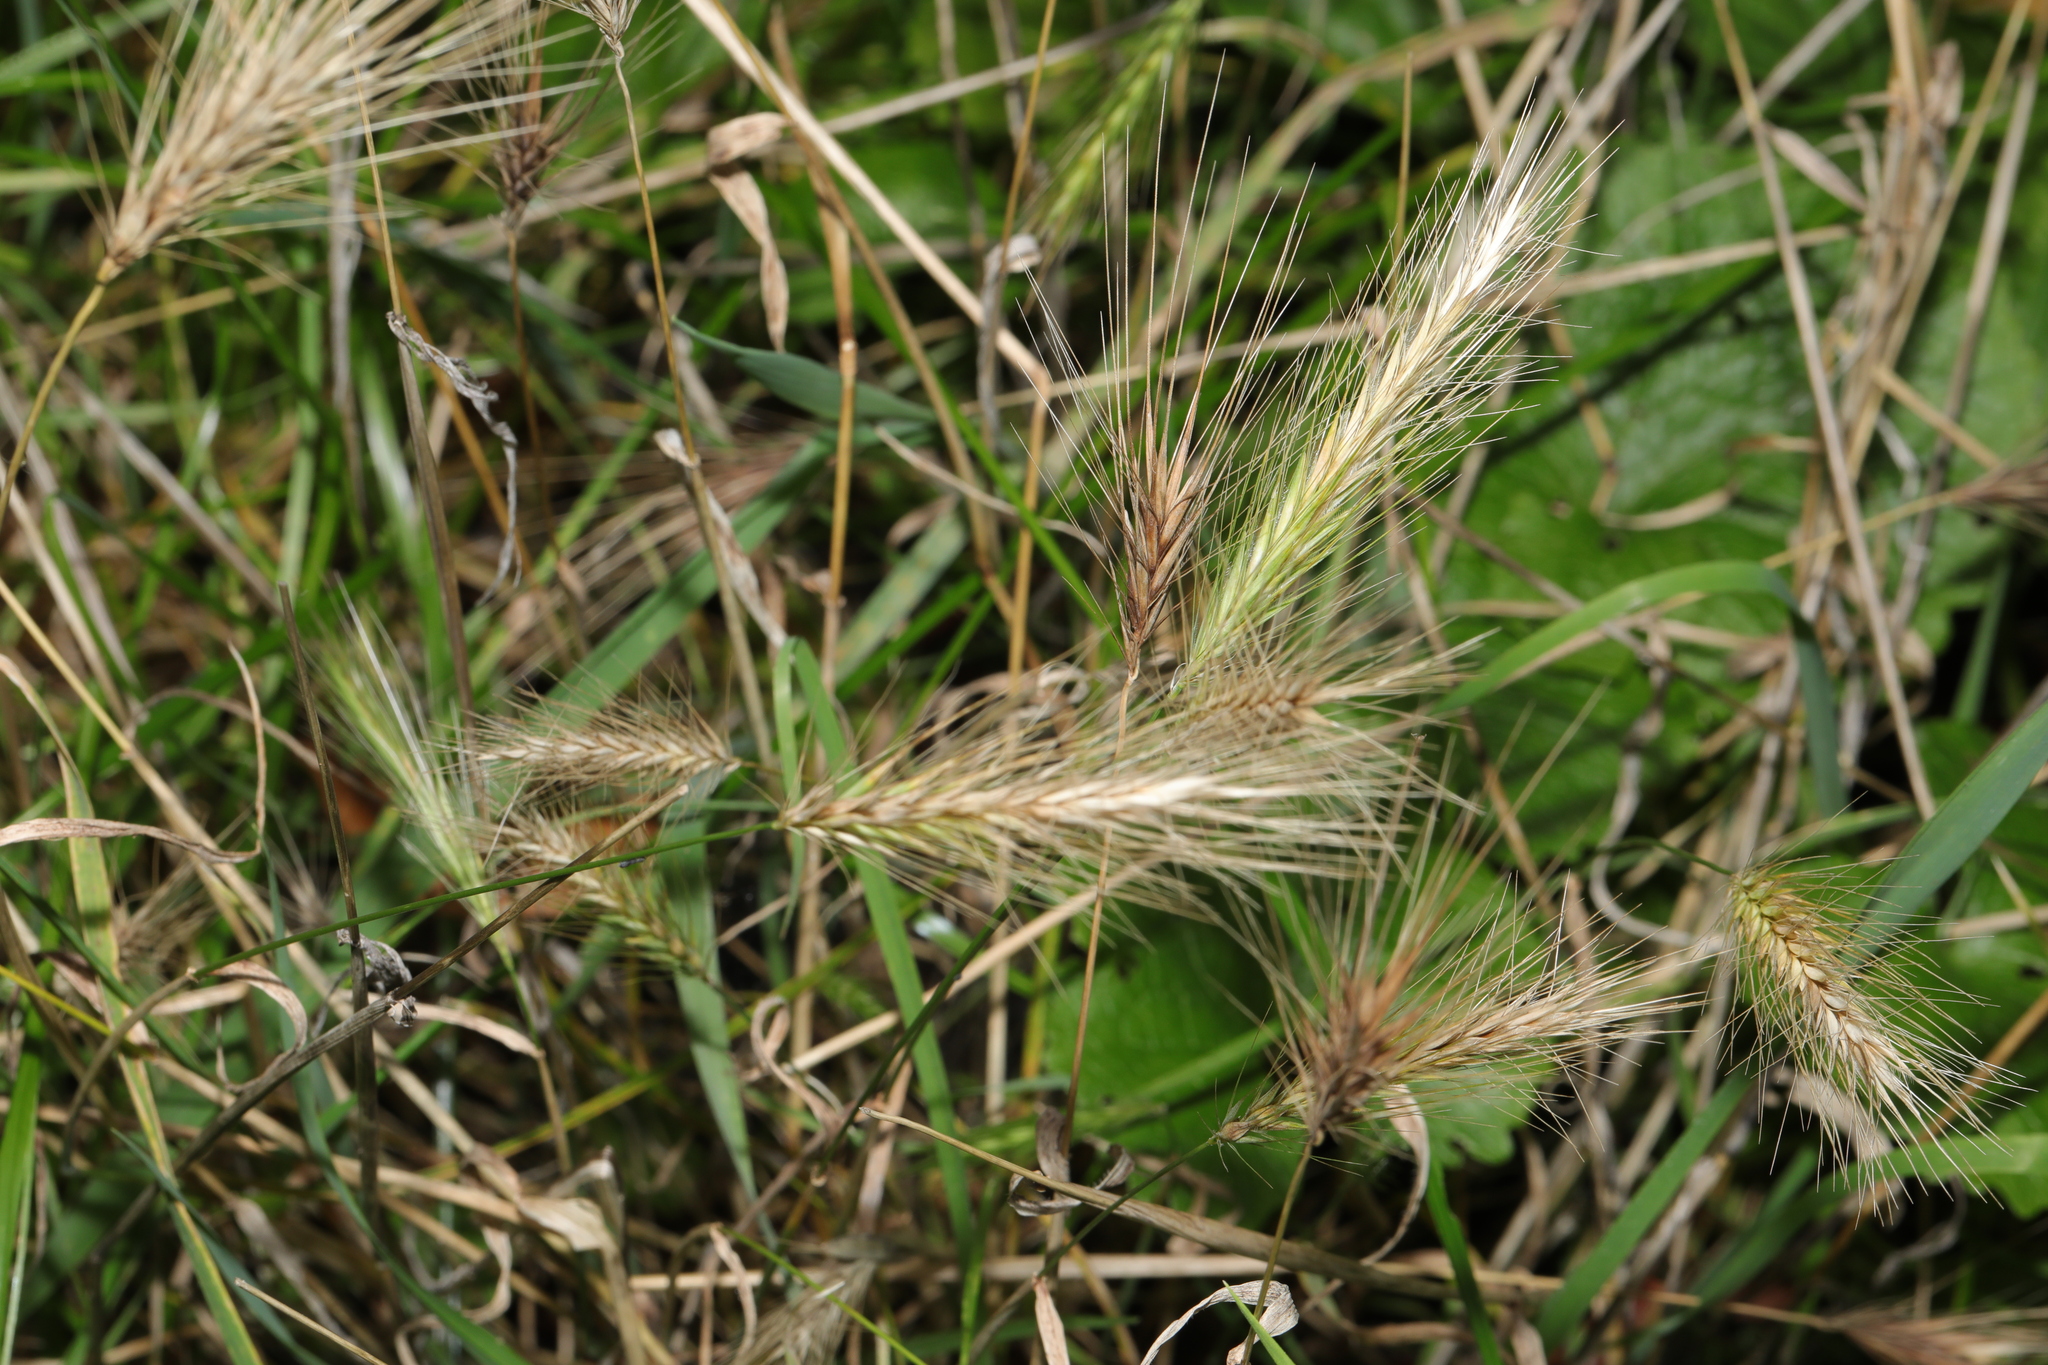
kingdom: Plantae
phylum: Tracheophyta
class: Liliopsida
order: Poales
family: Poaceae
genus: Hordeum
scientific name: Hordeum murinum
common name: Wall barley
